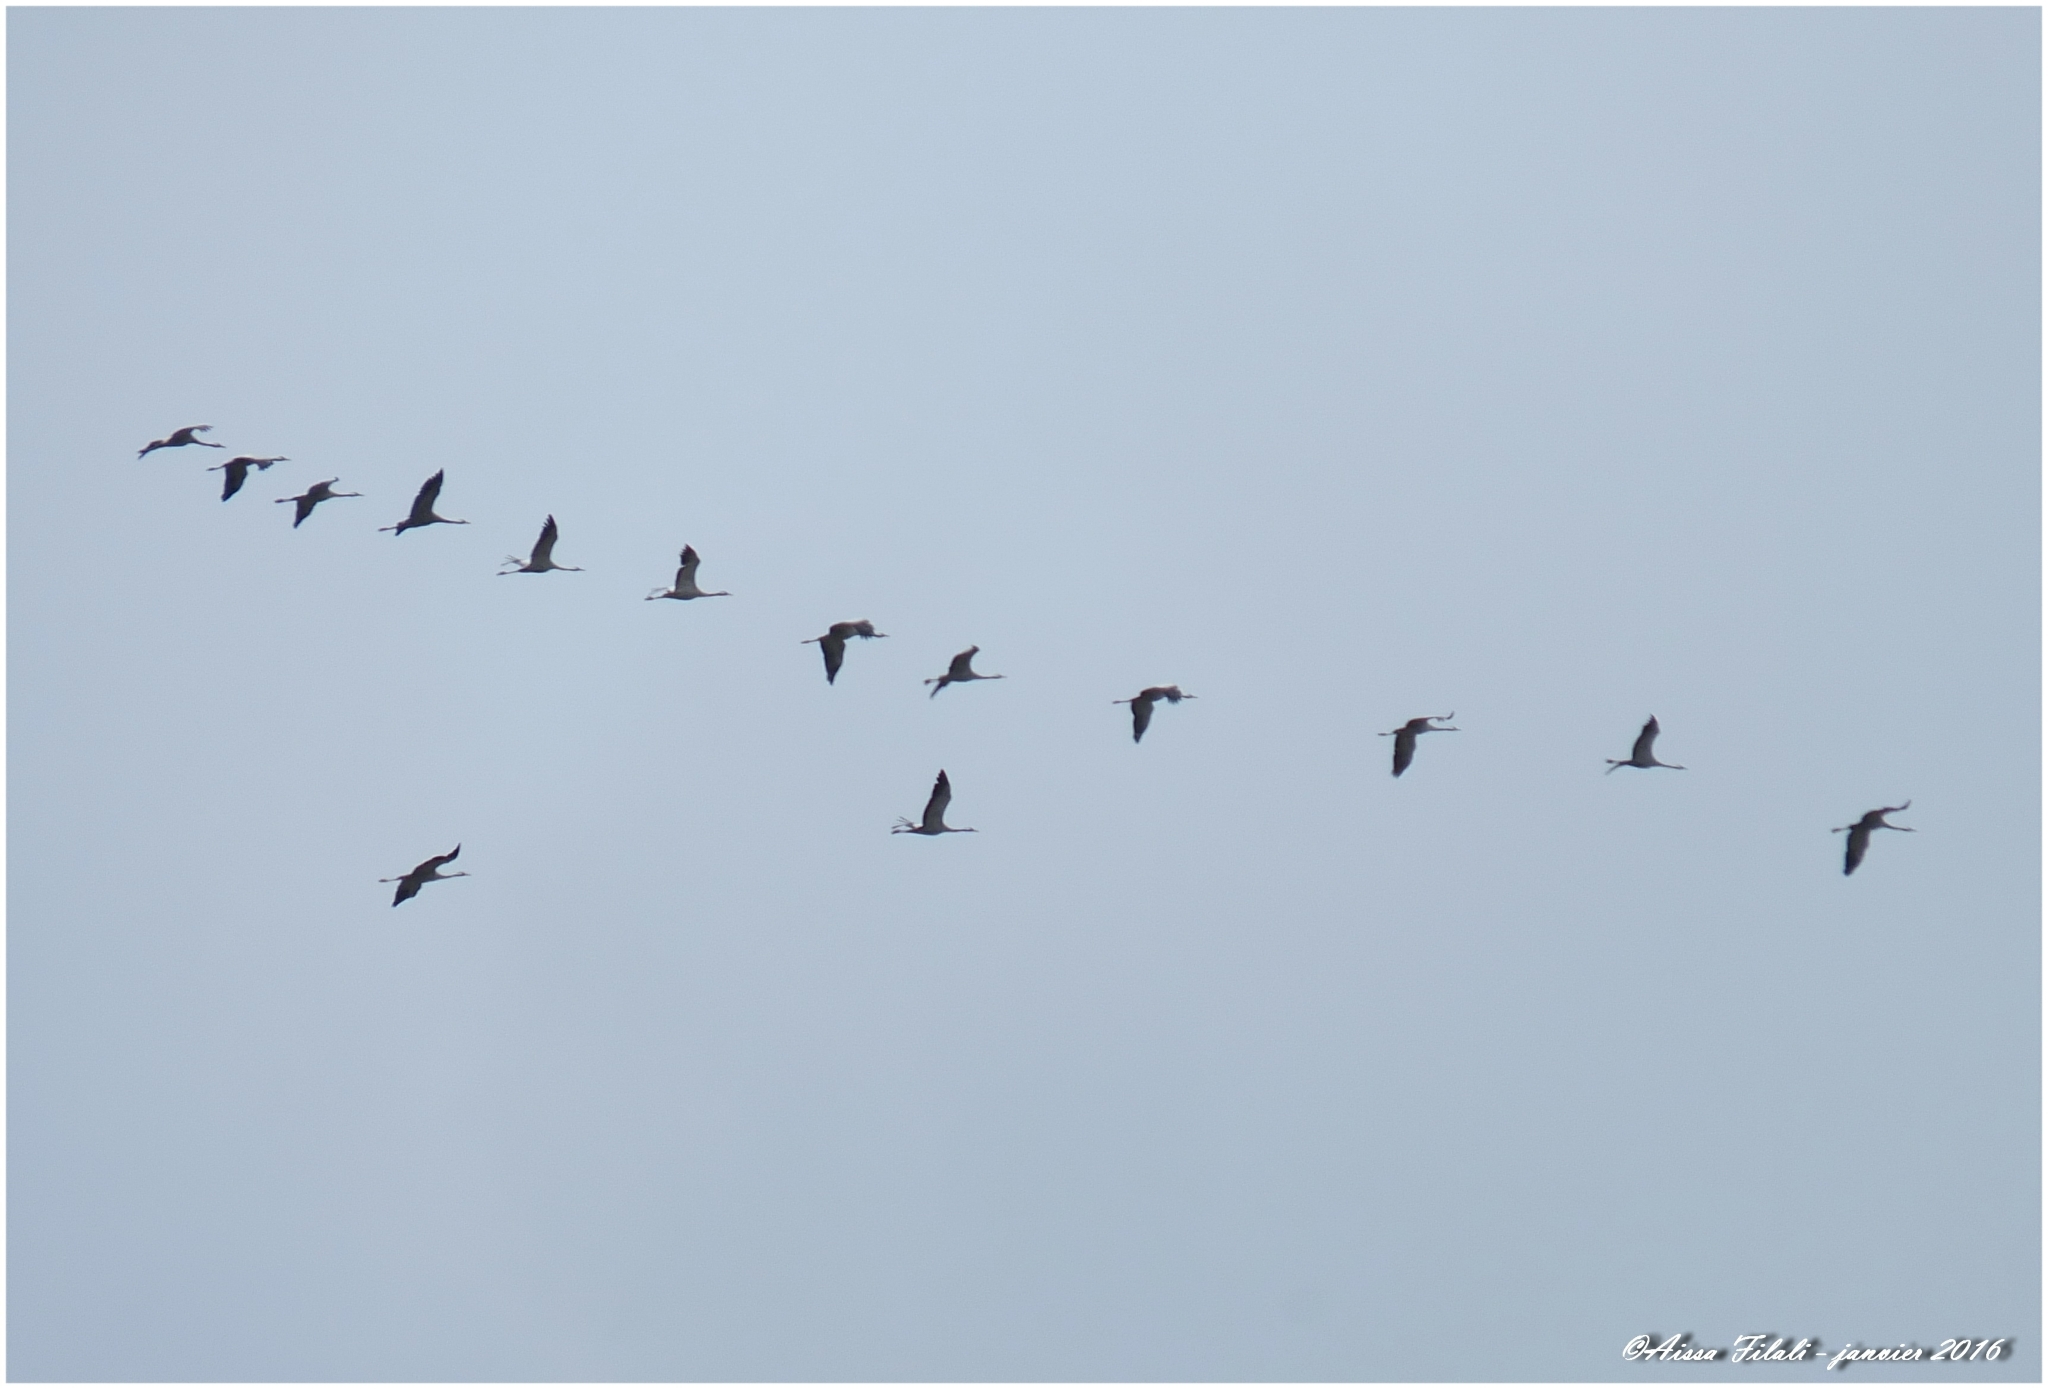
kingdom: Animalia
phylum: Chordata
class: Aves
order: Gruiformes
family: Gruidae
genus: Grus
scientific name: Grus grus
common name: Common crane
